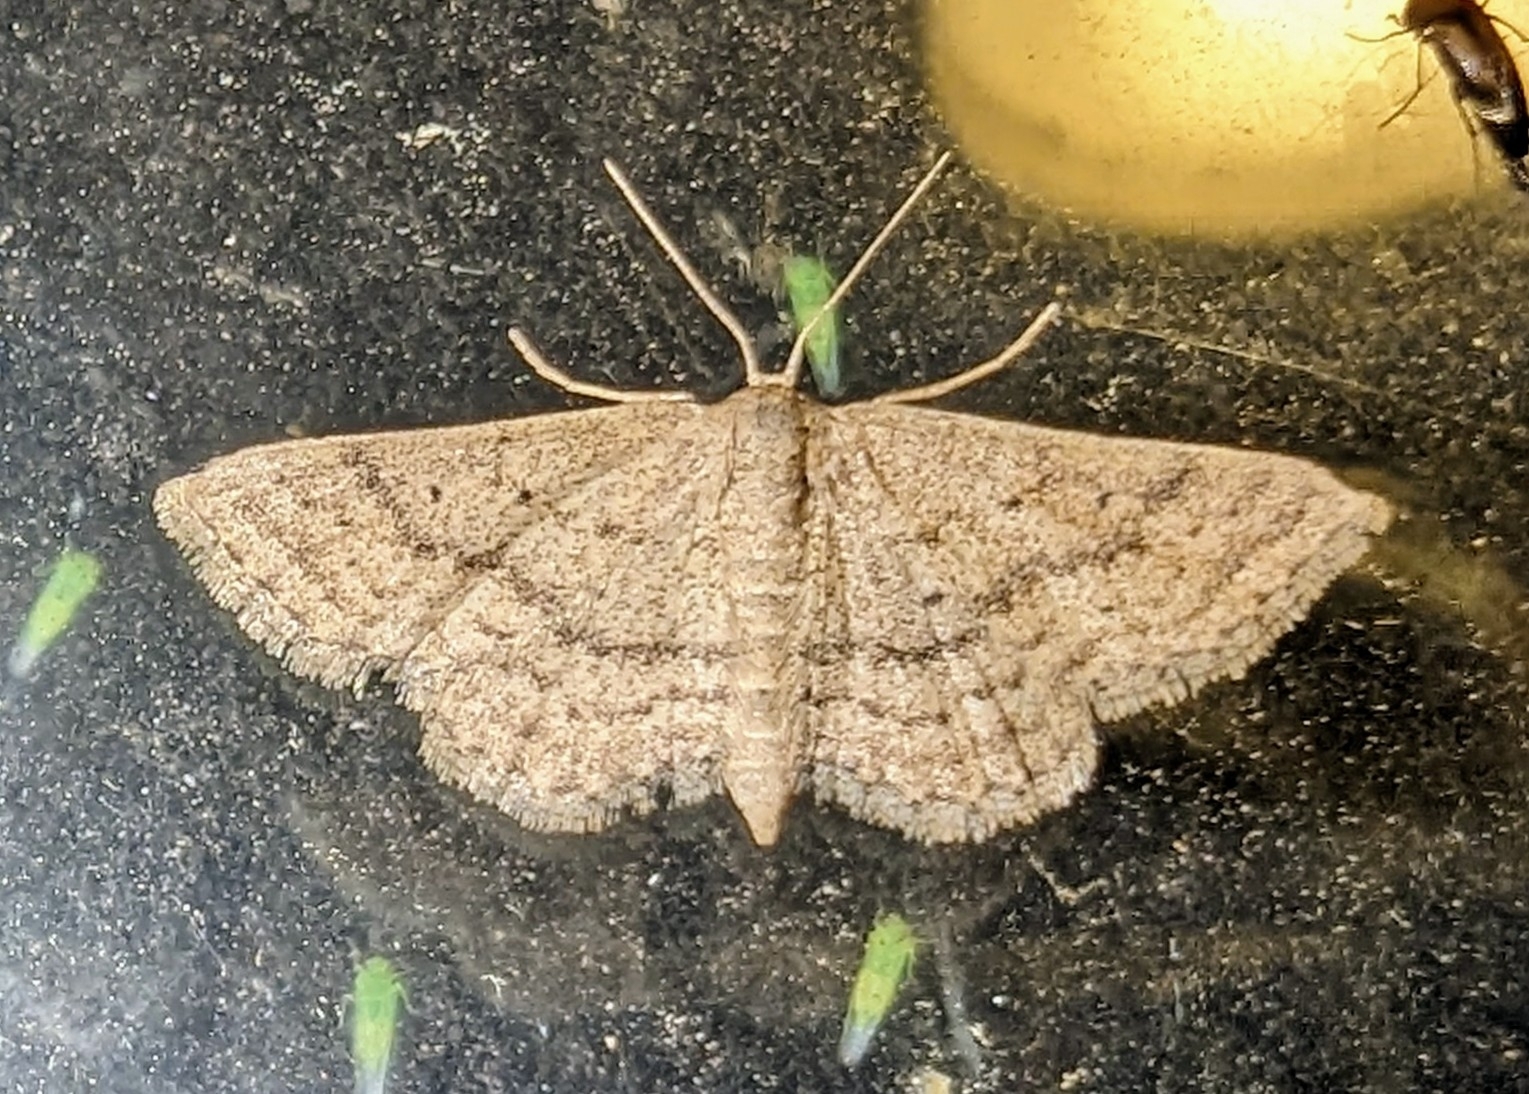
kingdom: Animalia
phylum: Arthropoda
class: Insecta
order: Lepidoptera
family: Geometridae
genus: Lobocleta
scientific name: Lobocleta ossularia
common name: Drab brown wave
